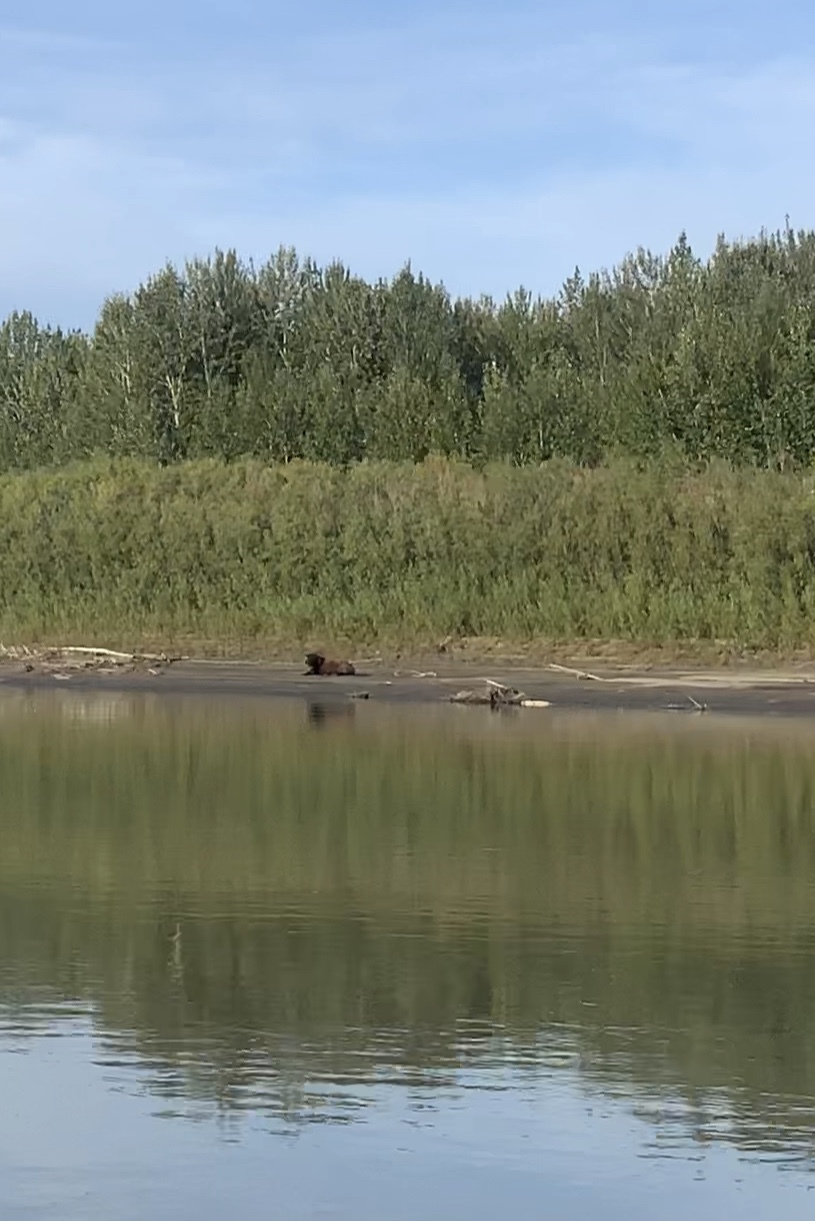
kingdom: Animalia
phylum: Chordata
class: Mammalia
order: Artiodactyla
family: Bovidae
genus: Bison
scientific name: Bison bison
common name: American bison
